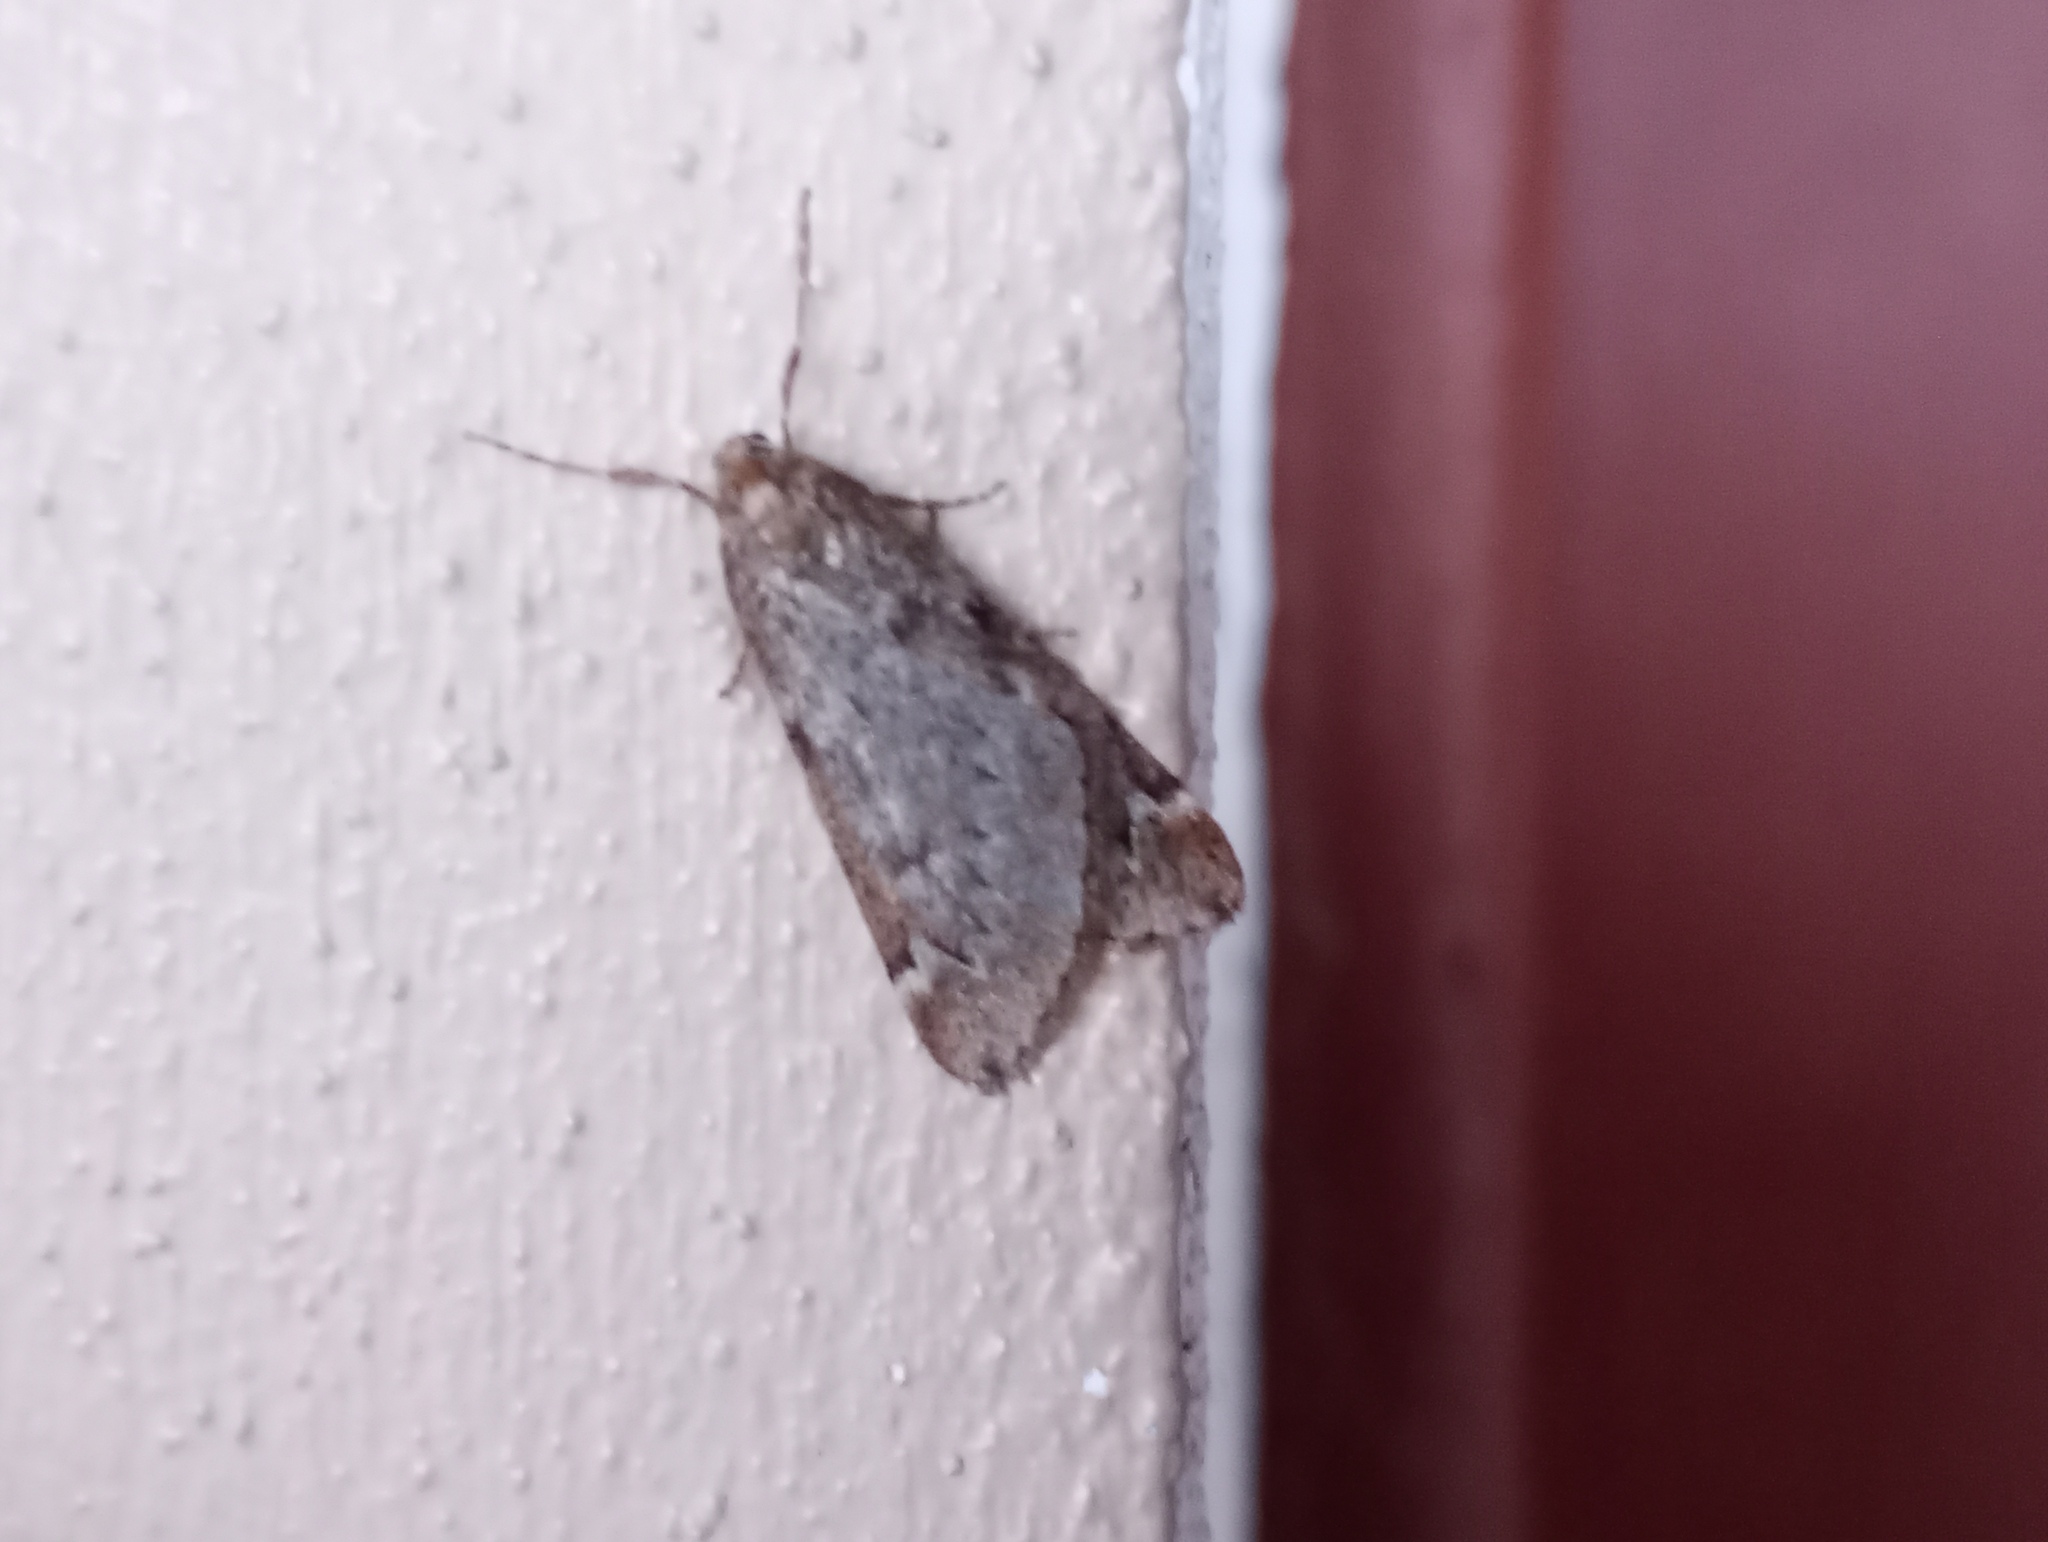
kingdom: Animalia
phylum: Arthropoda
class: Insecta
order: Lepidoptera
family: Geometridae
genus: Alsophila
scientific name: Alsophila aescularia
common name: March moth
